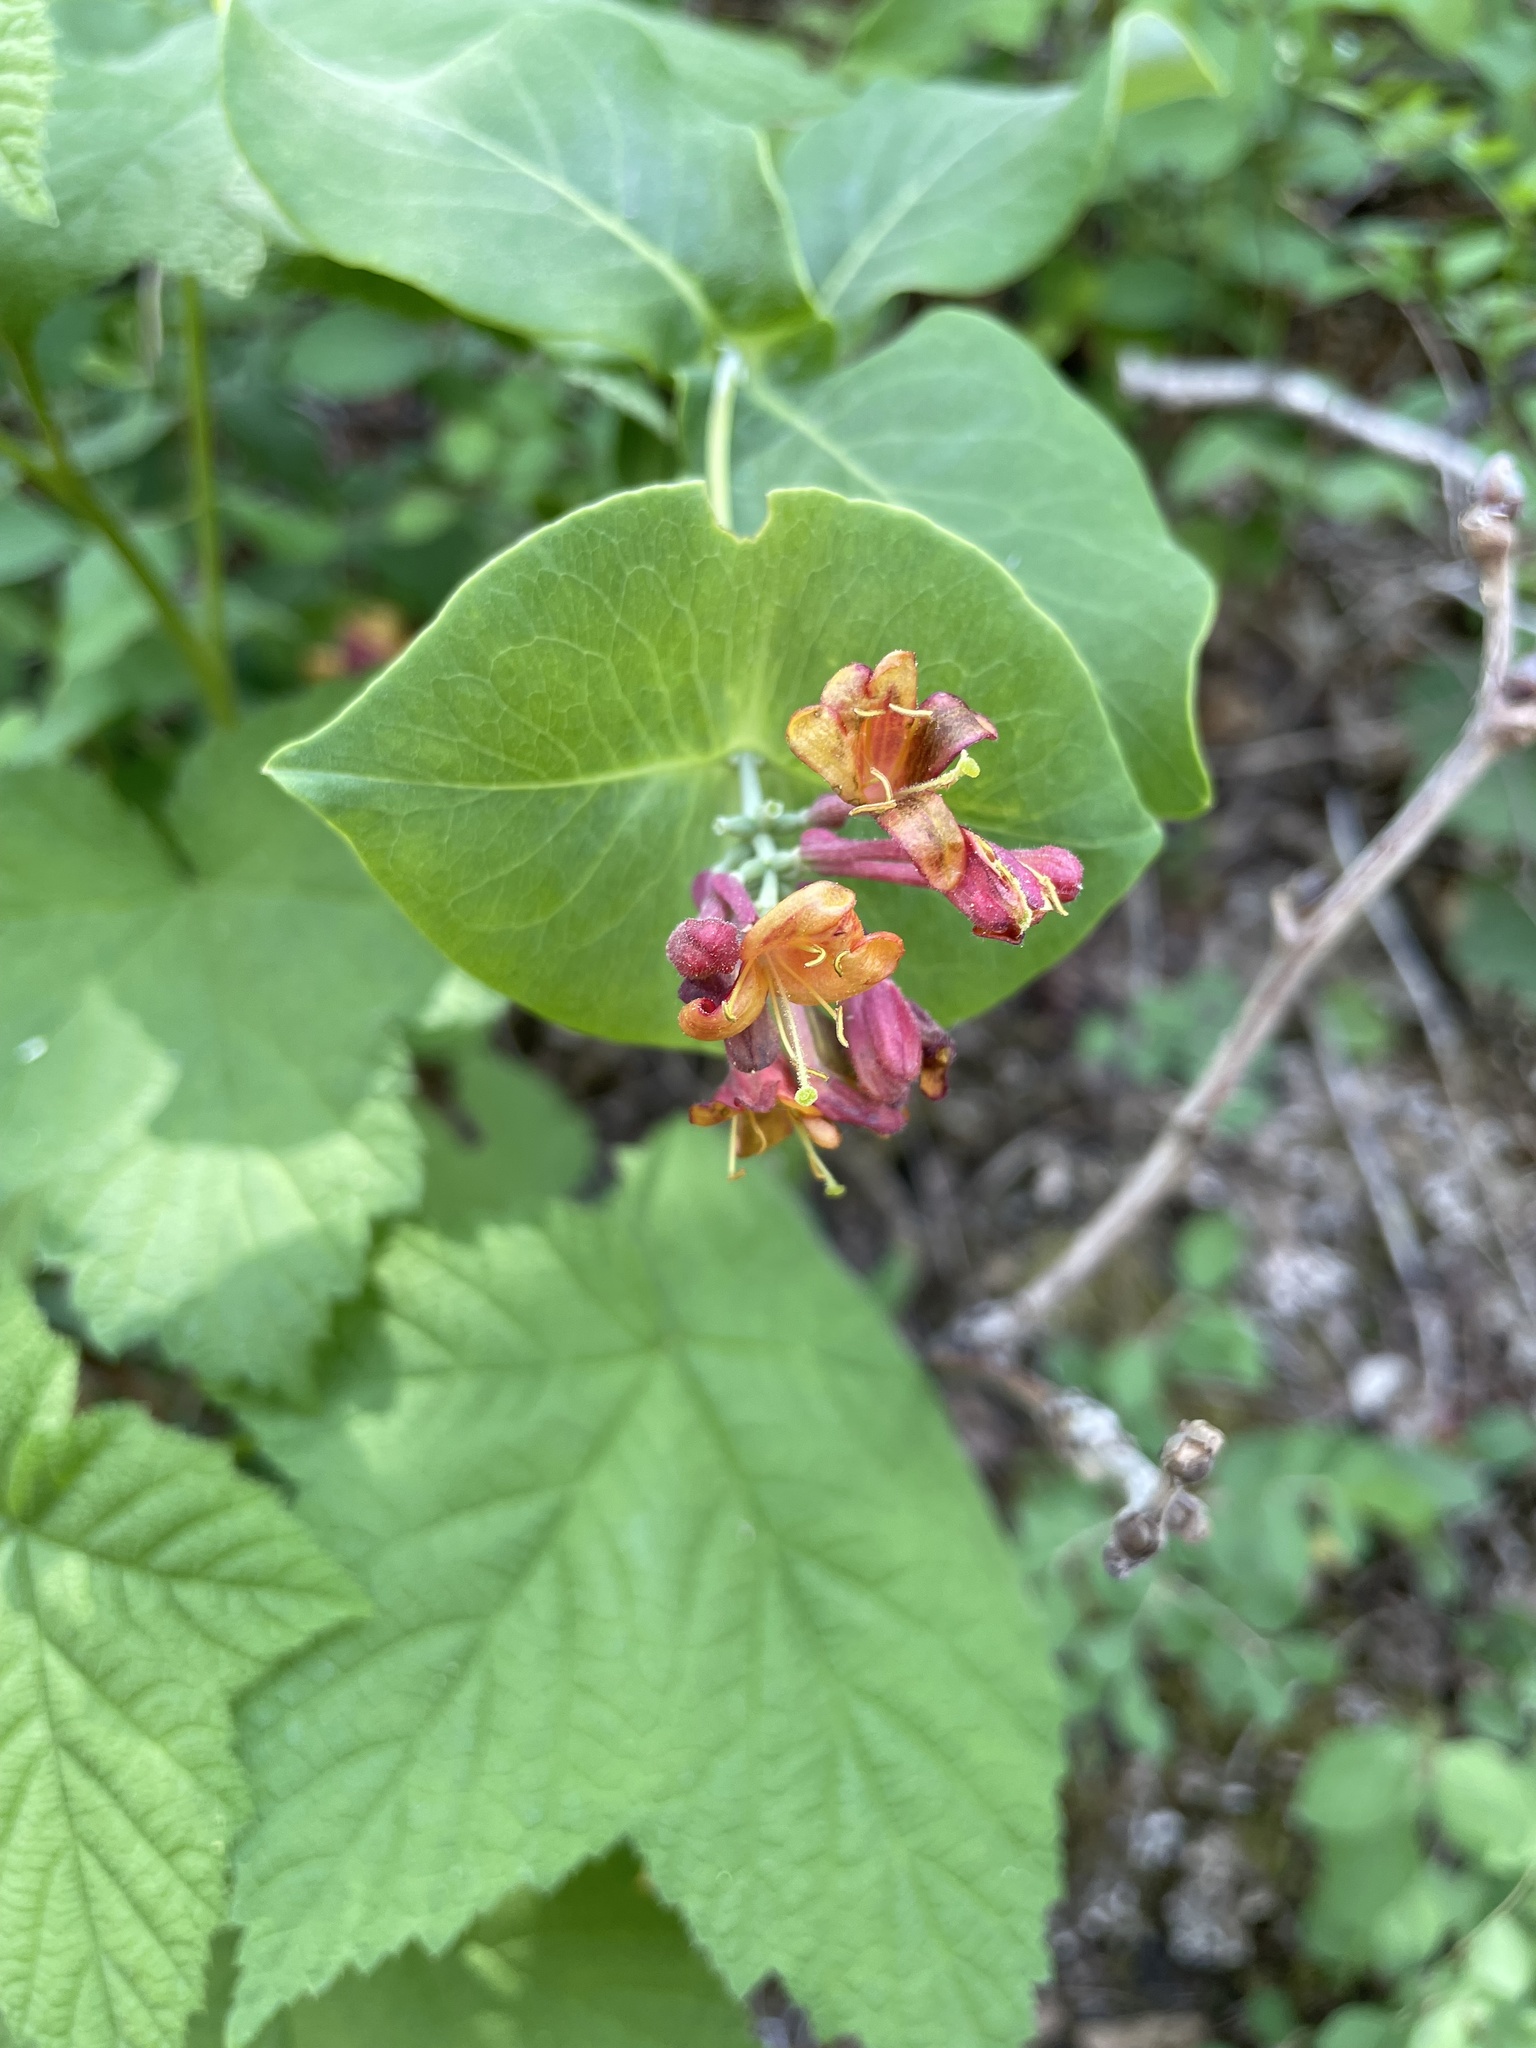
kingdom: Plantae
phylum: Tracheophyta
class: Magnoliopsida
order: Dipsacales
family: Caprifoliaceae
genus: Lonicera
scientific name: Lonicera dioica
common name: Limber honeysuckle
